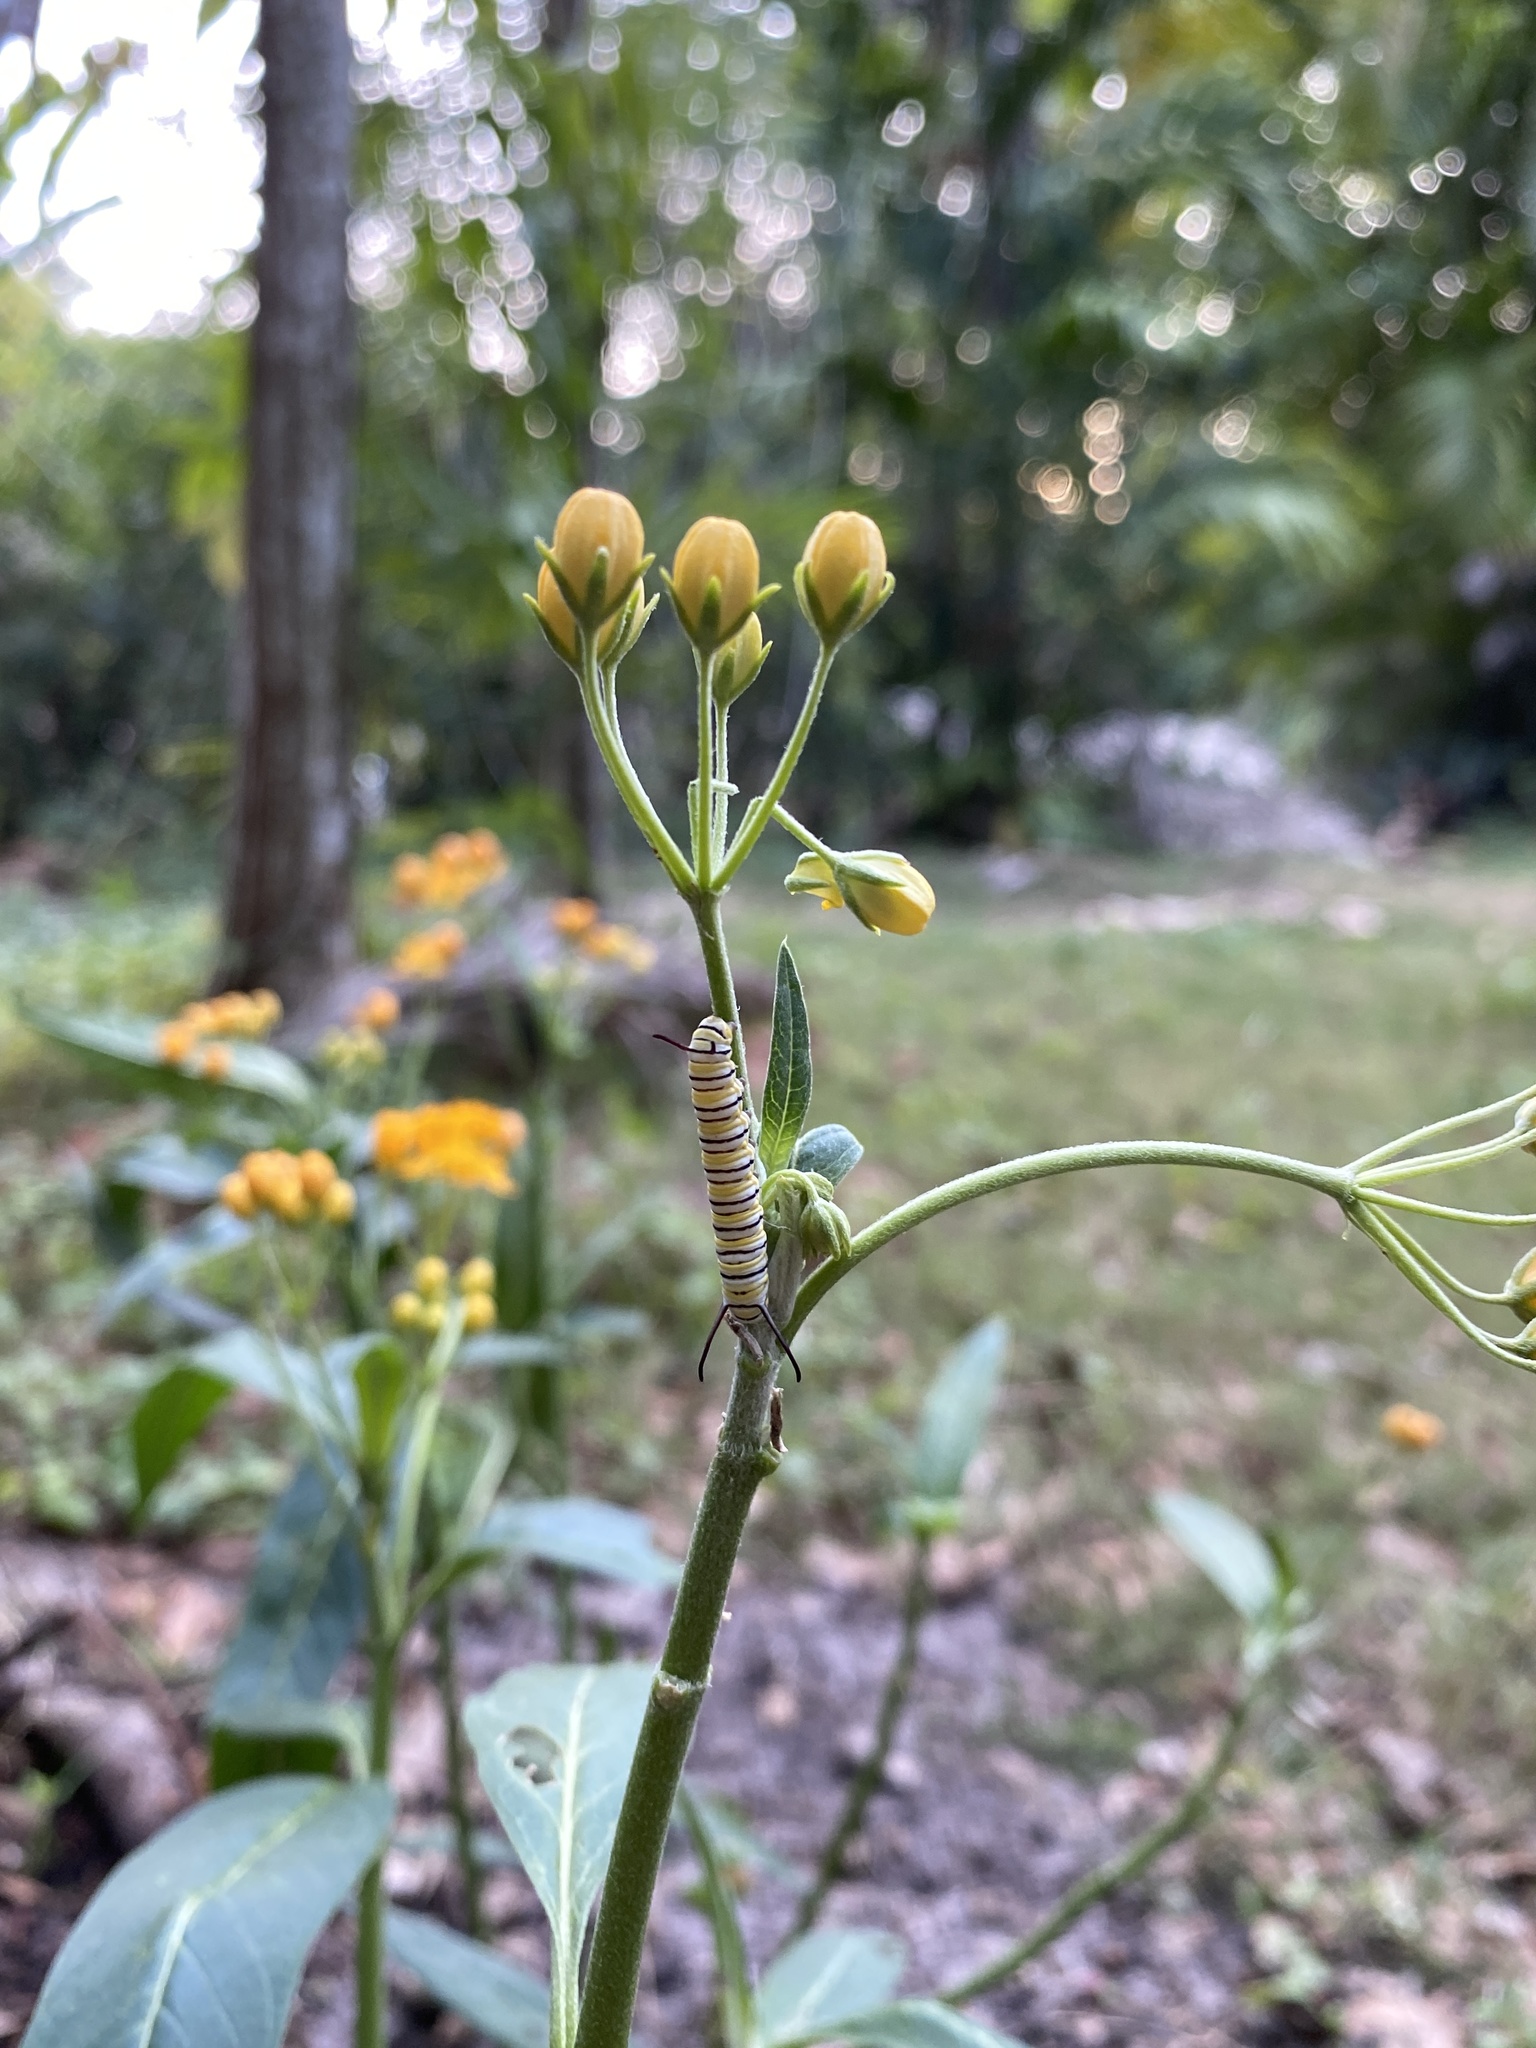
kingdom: Animalia
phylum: Arthropoda
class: Insecta
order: Lepidoptera
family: Nymphalidae
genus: Danaus
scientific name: Danaus plexippus
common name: Monarch
